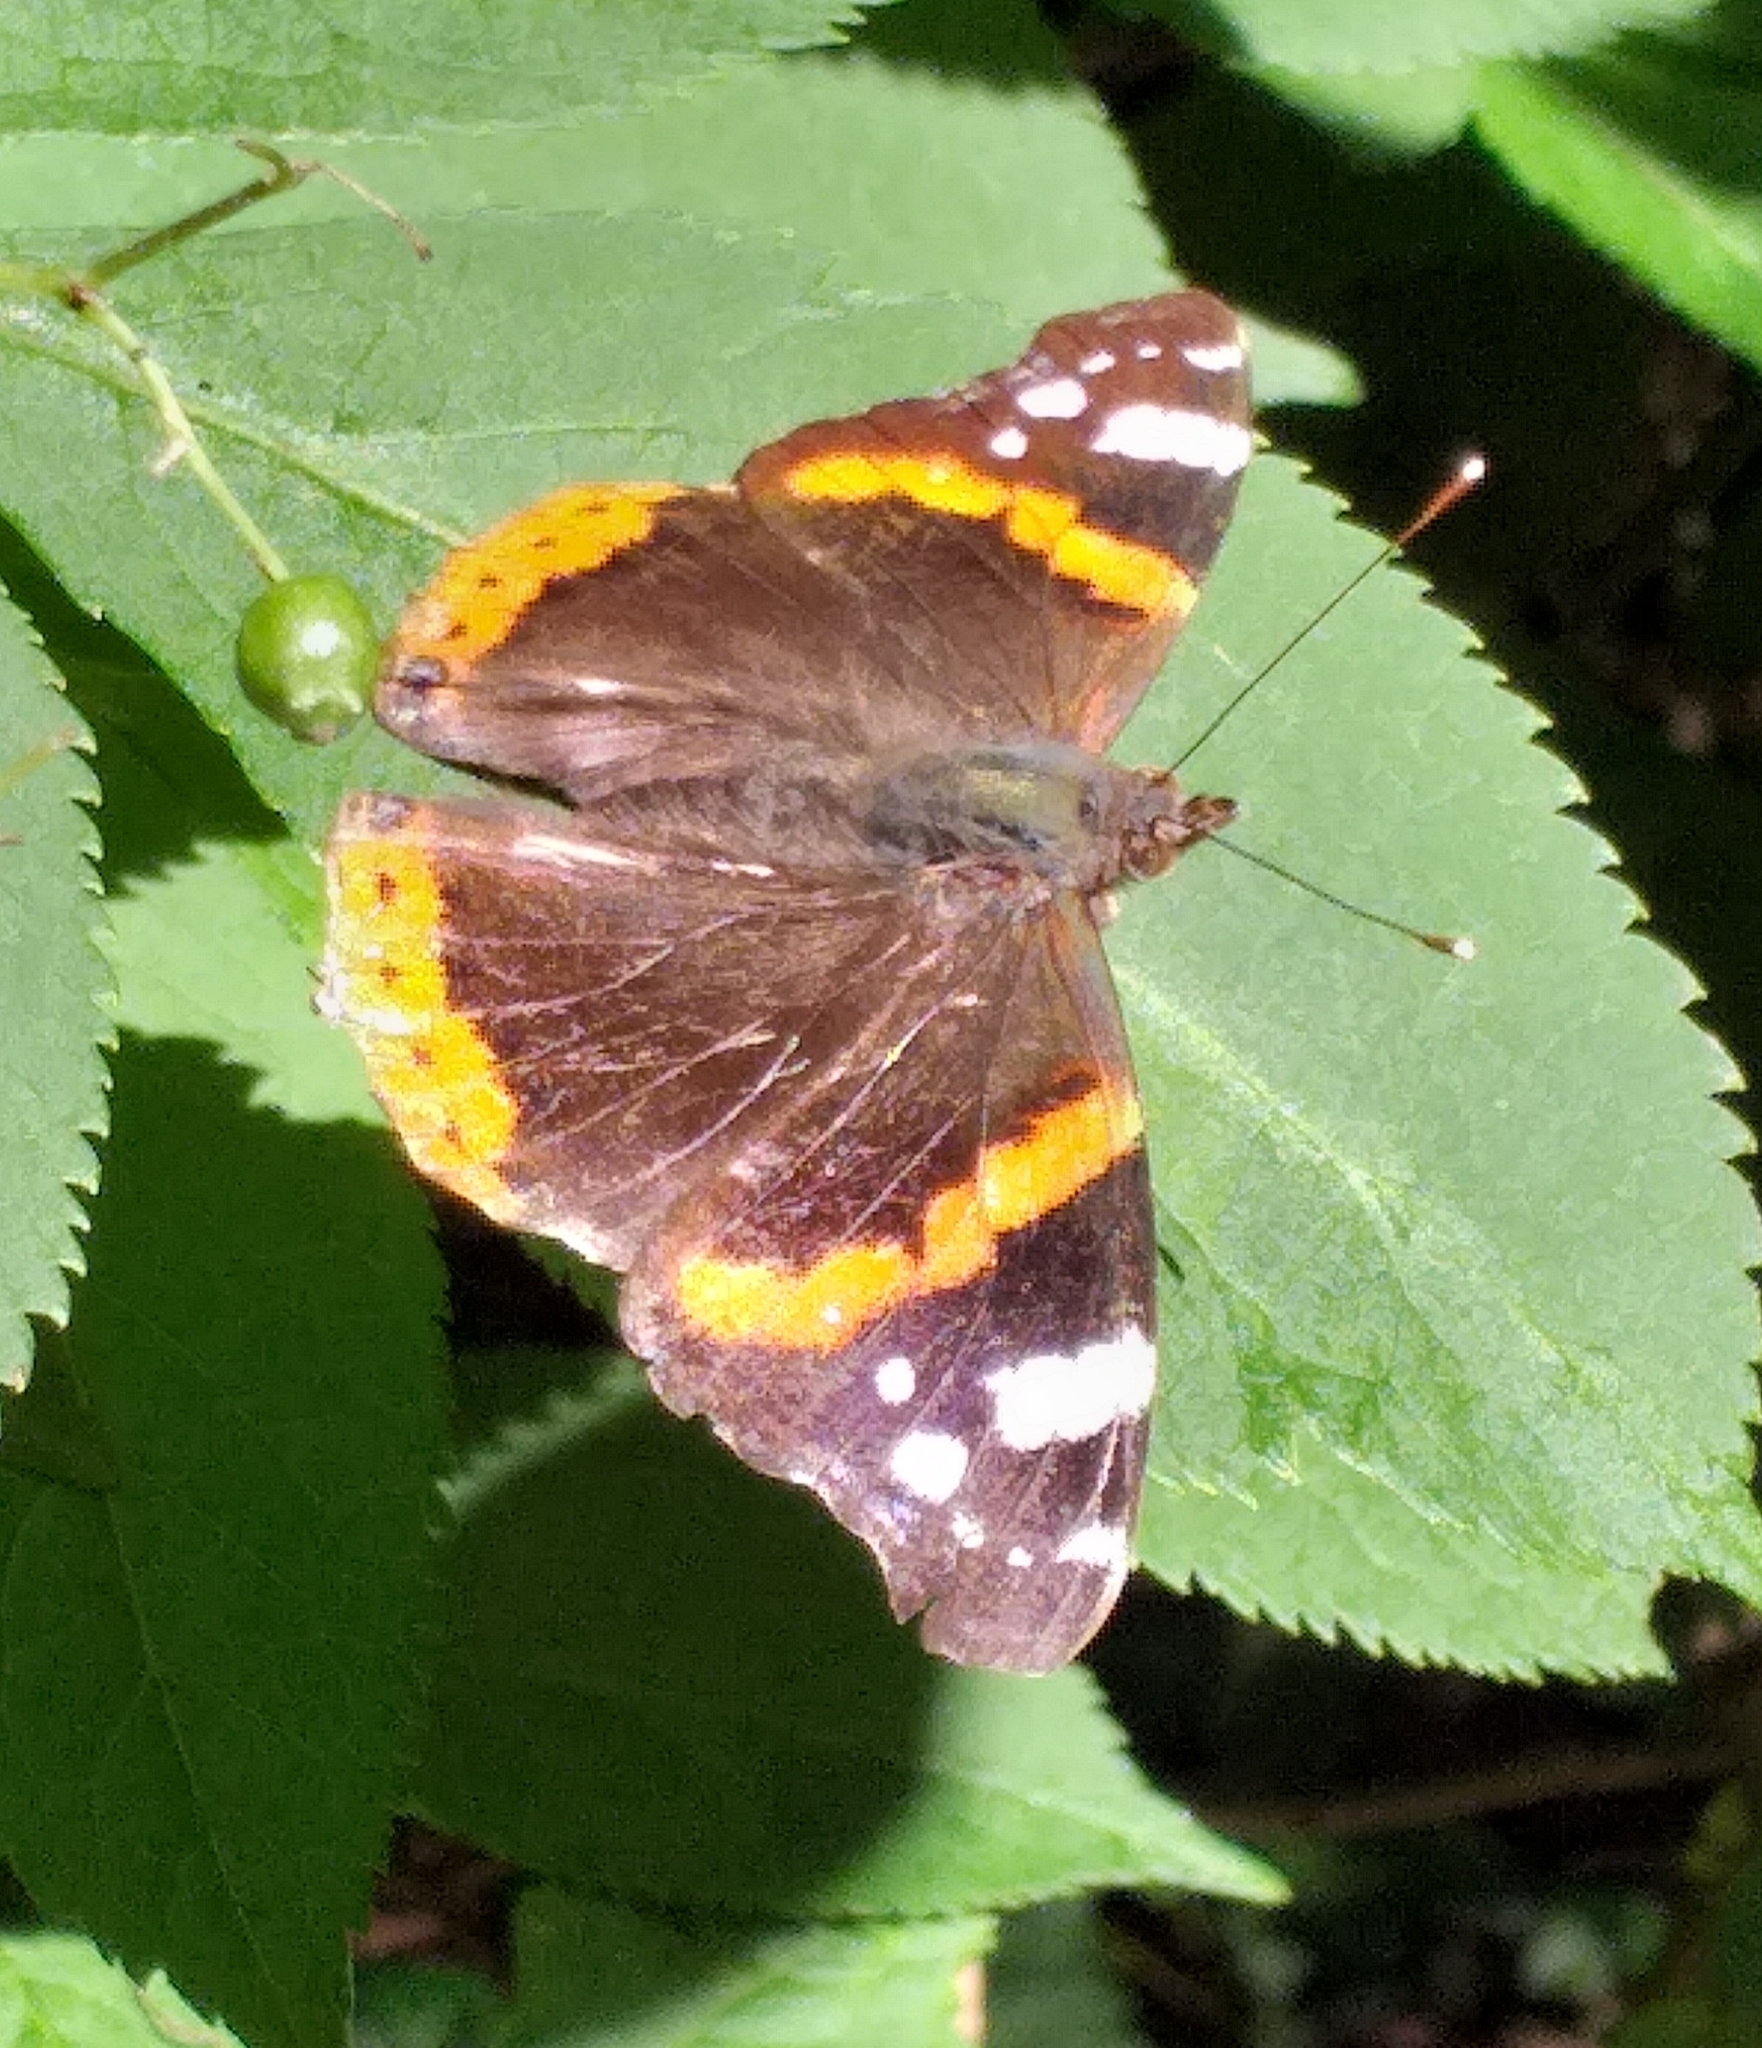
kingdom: Animalia
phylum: Arthropoda
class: Insecta
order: Lepidoptera
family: Nymphalidae
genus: Vanessa
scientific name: Vanessa atalanta
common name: Red admiral
